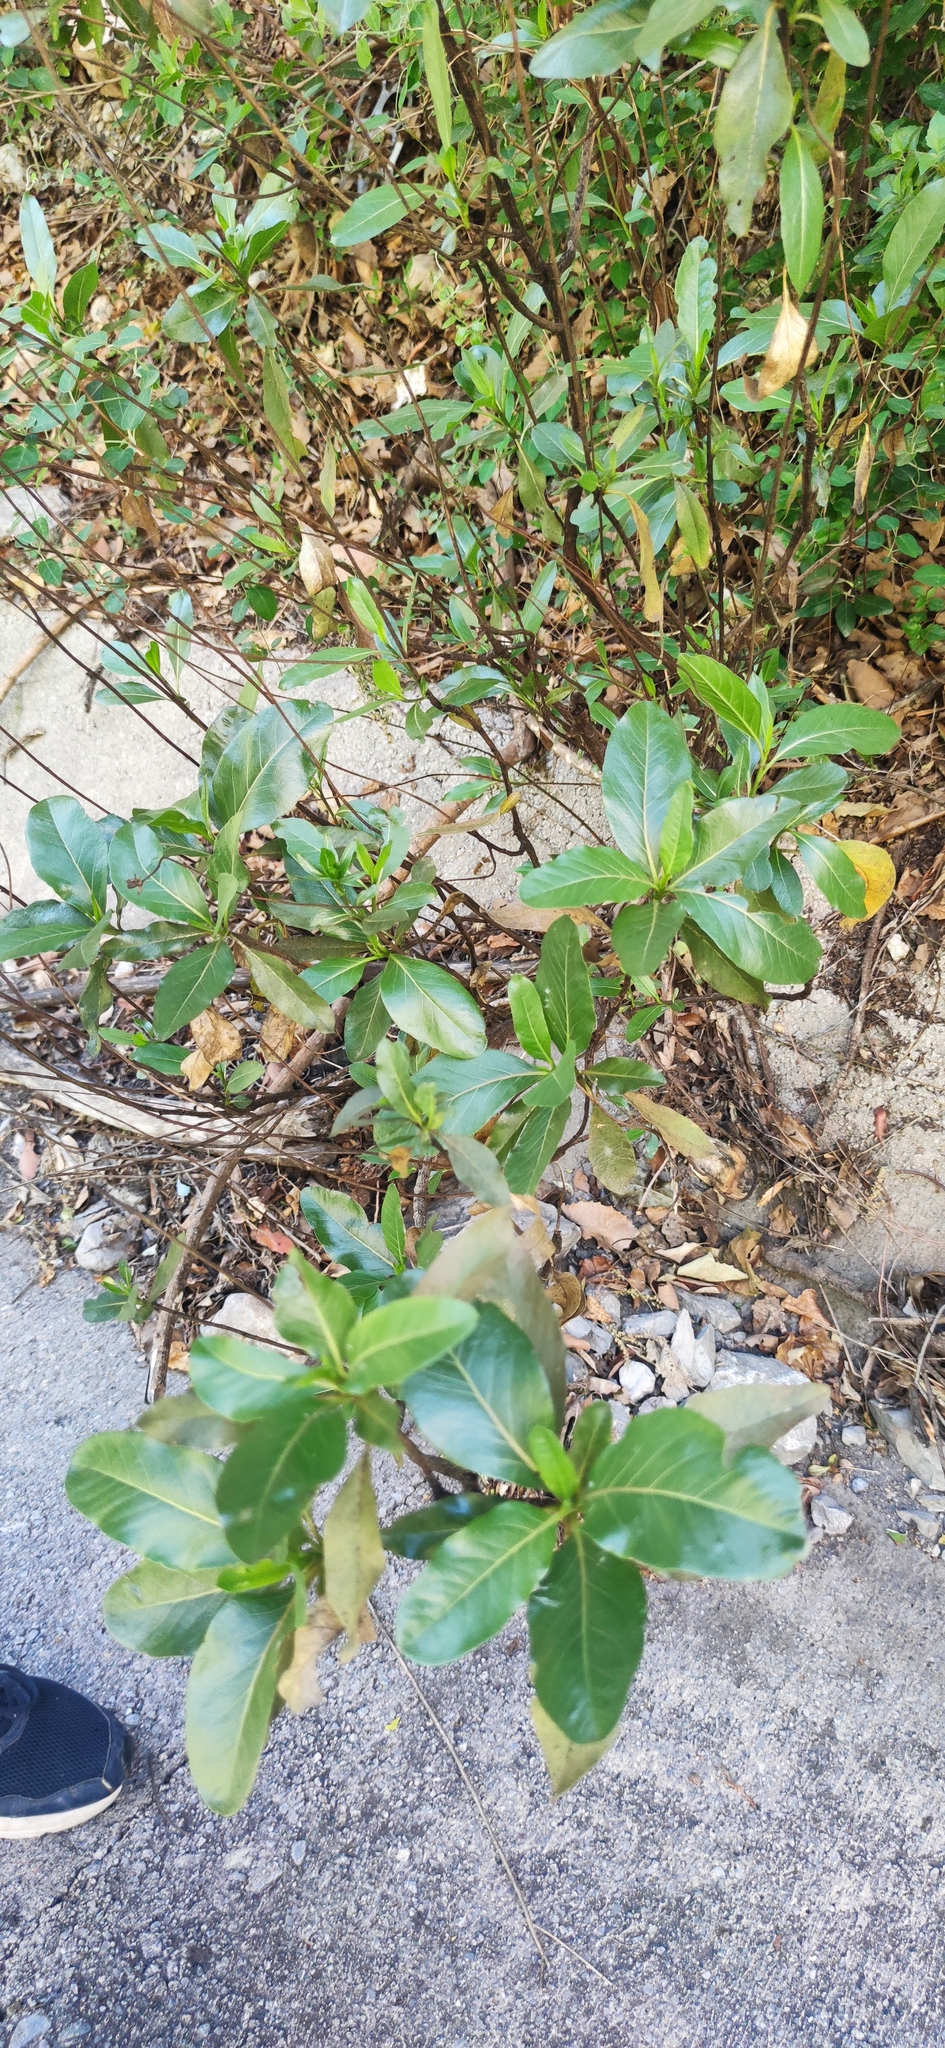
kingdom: Plantae
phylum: Tracheophyta
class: Magnoliopsida
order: Asterales
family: Asteraceae
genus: Flourensia
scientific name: Flourensia monticola
